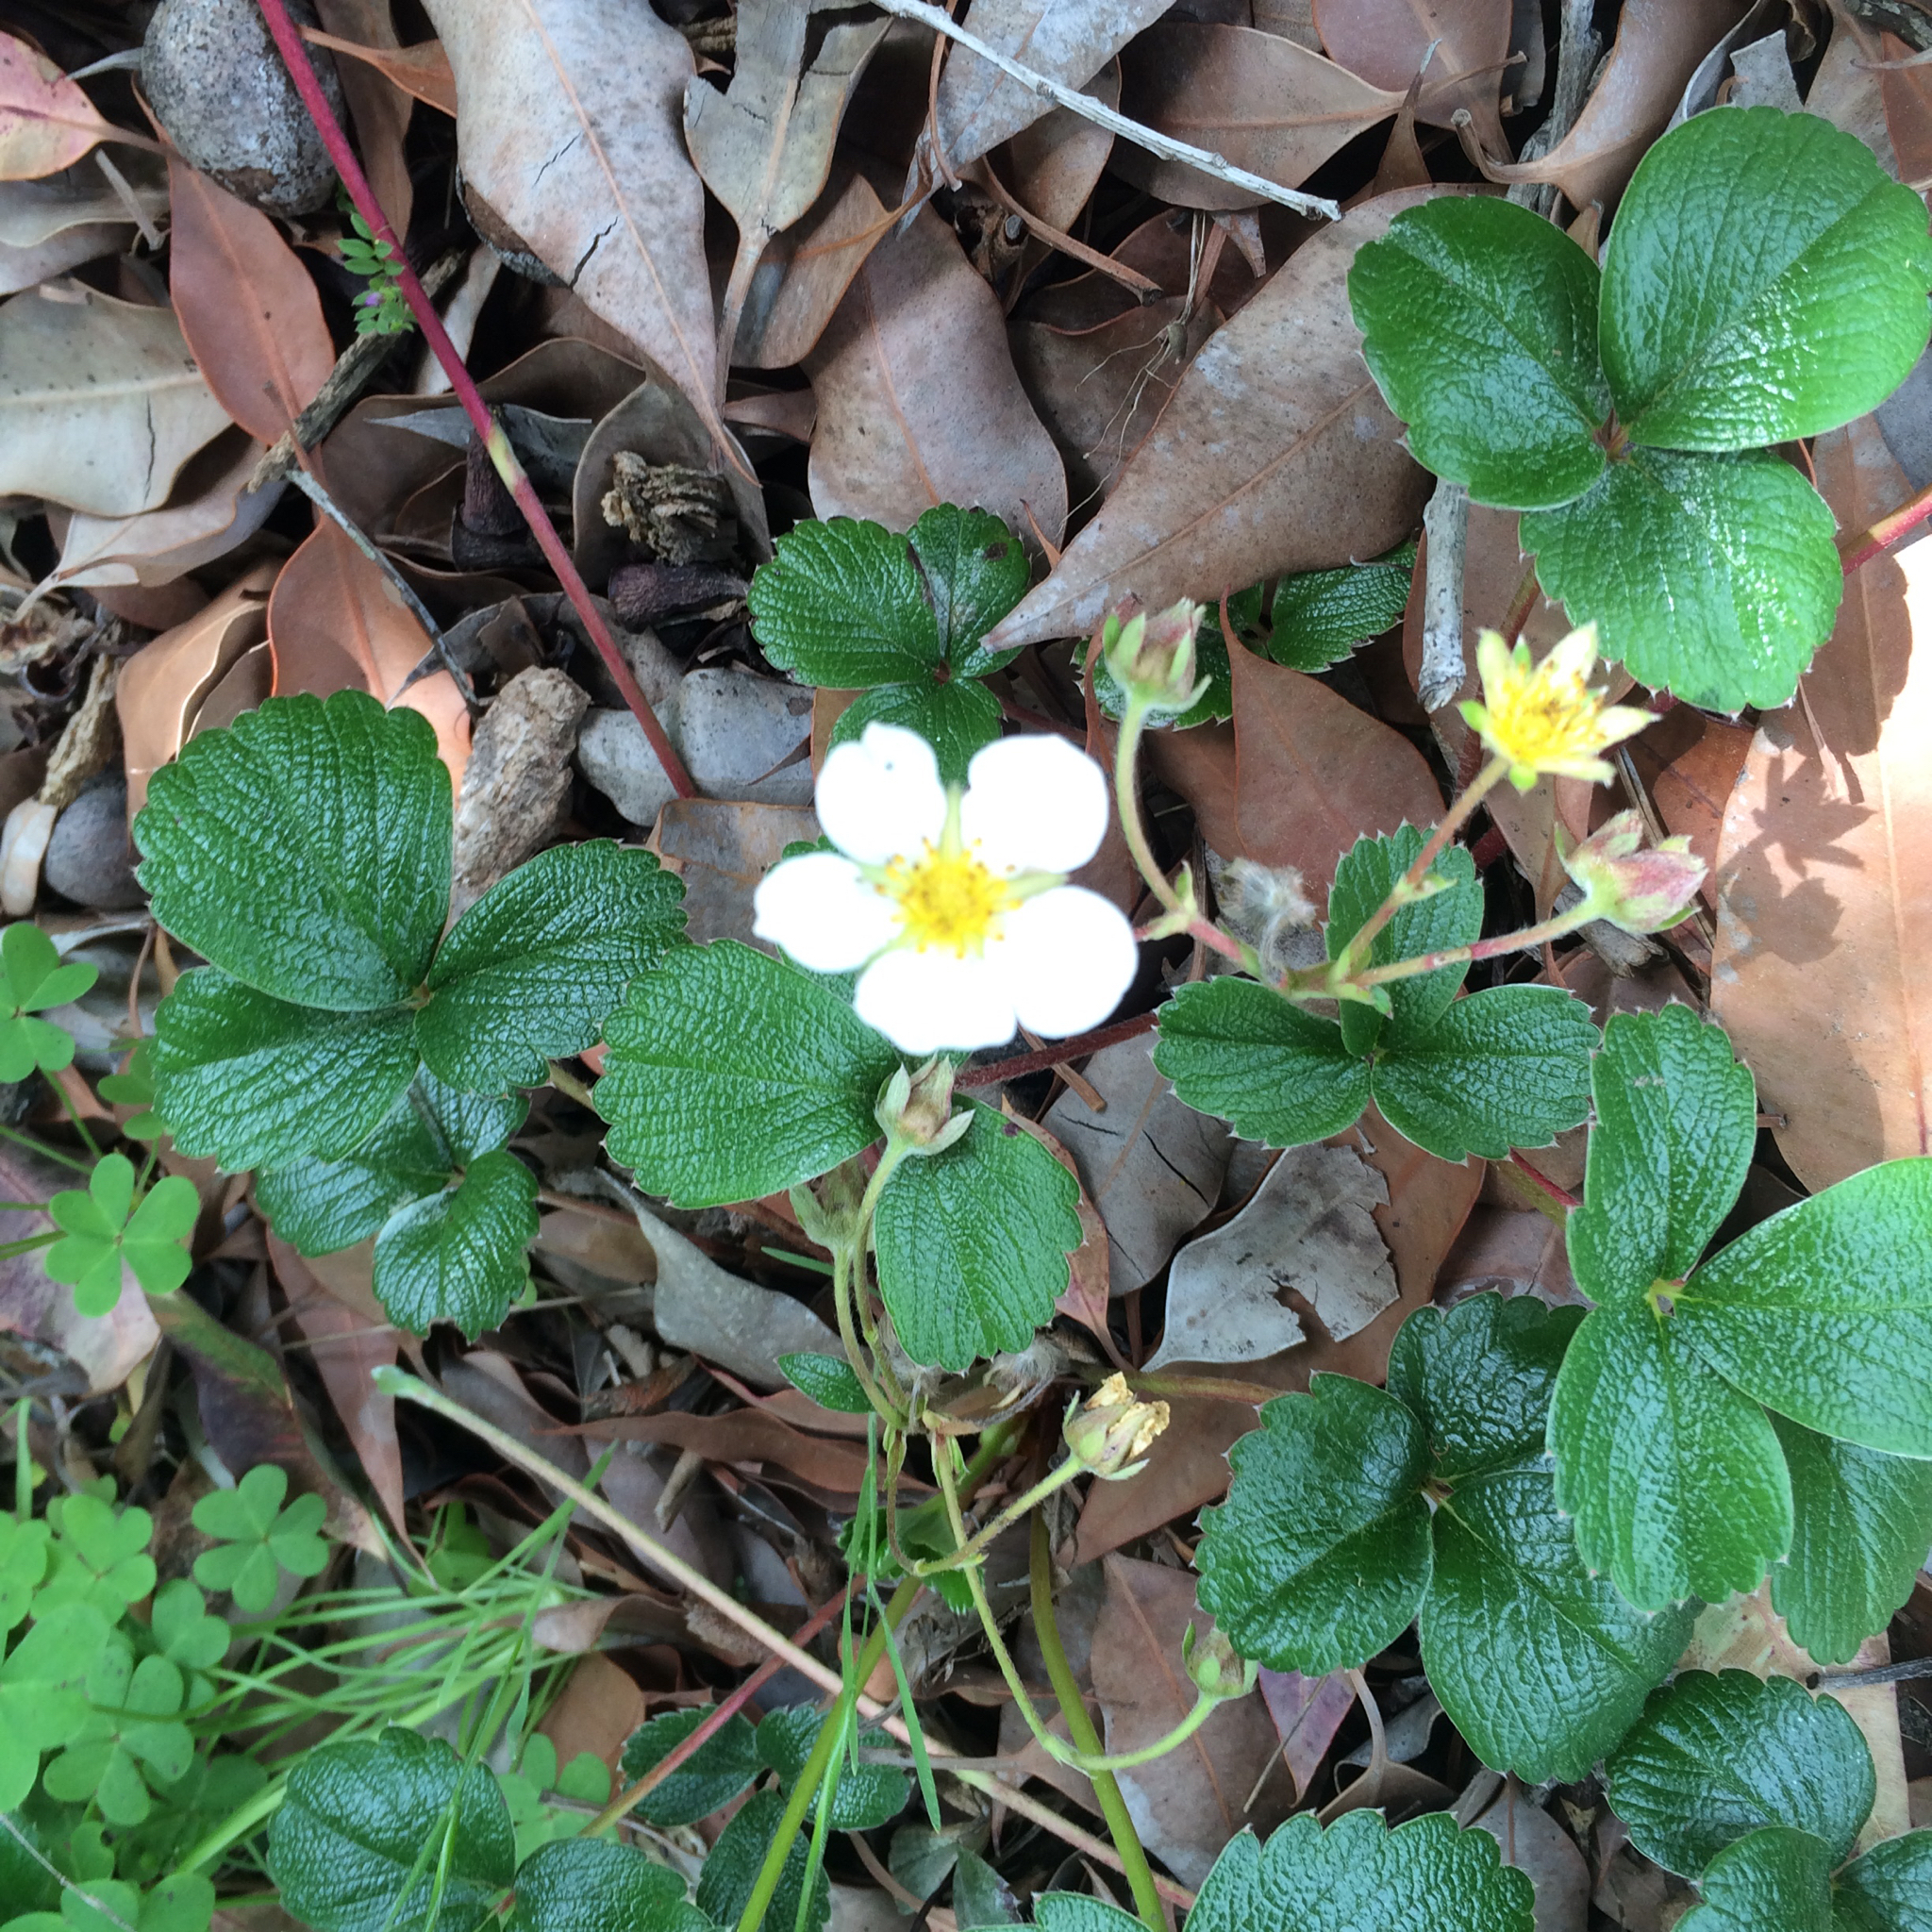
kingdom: Plantae
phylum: Tracheophyta
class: Magnoliopsida
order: Rosales
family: Rosaceae
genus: Fragaria
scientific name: Fragaria chiloensis
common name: Beach strawberry
